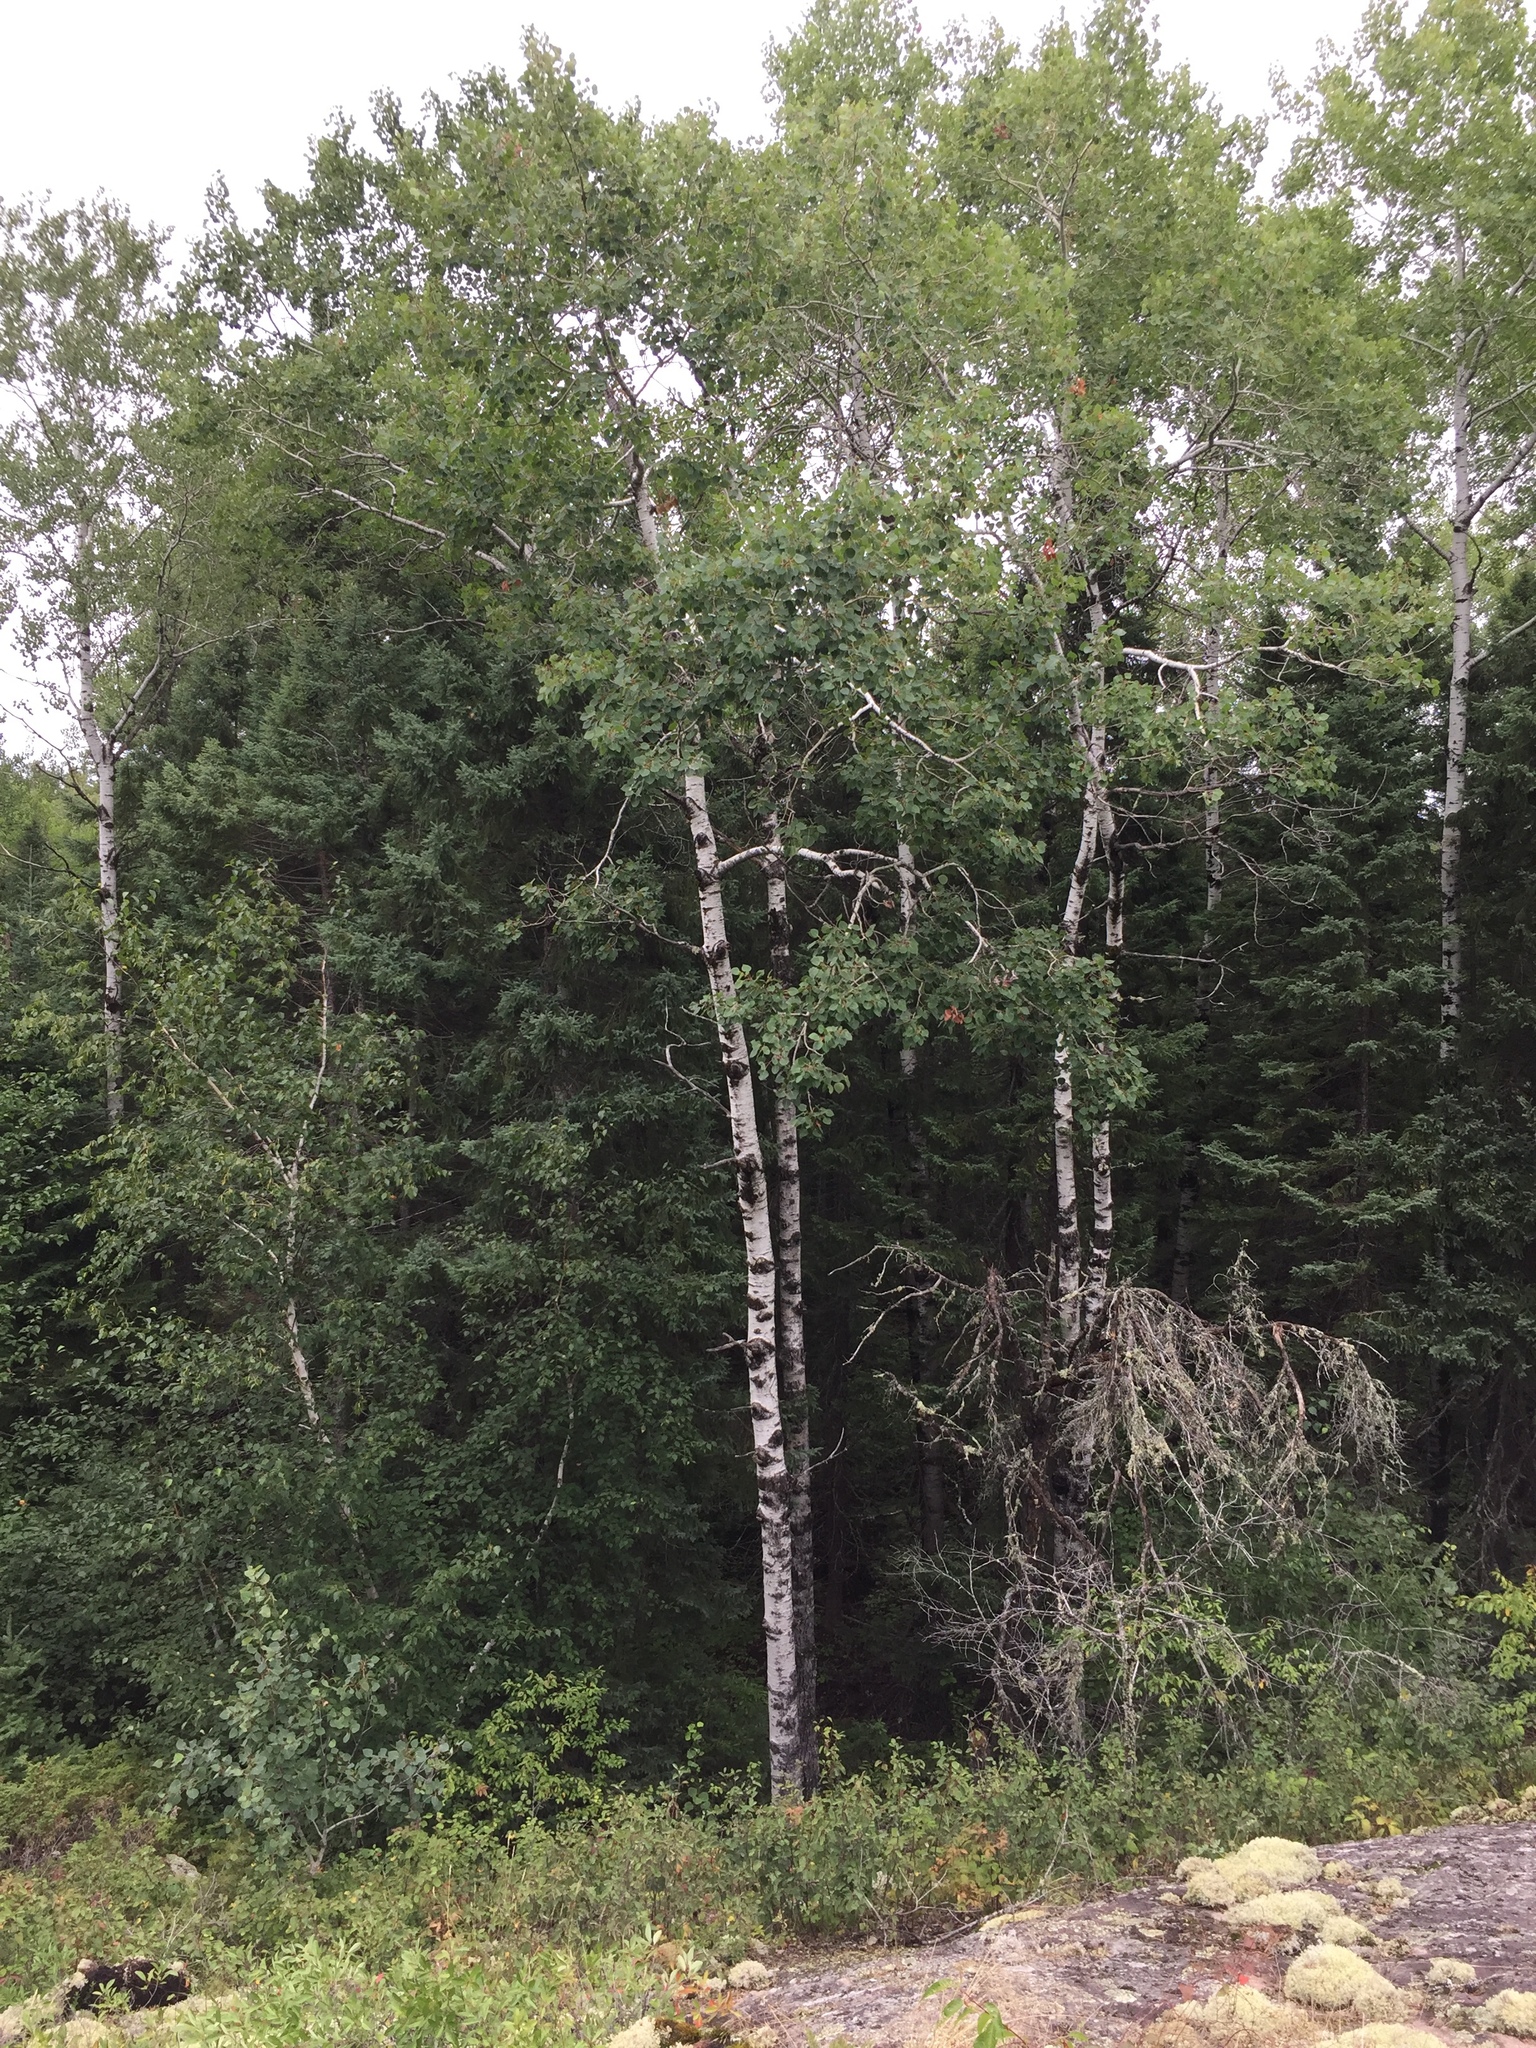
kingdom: Plantae
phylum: Tracheophyta
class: Magnoliopsida
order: Malpighiales
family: Salicaceae
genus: Populus
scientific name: Populus tremuloides
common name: Quaking aspen
